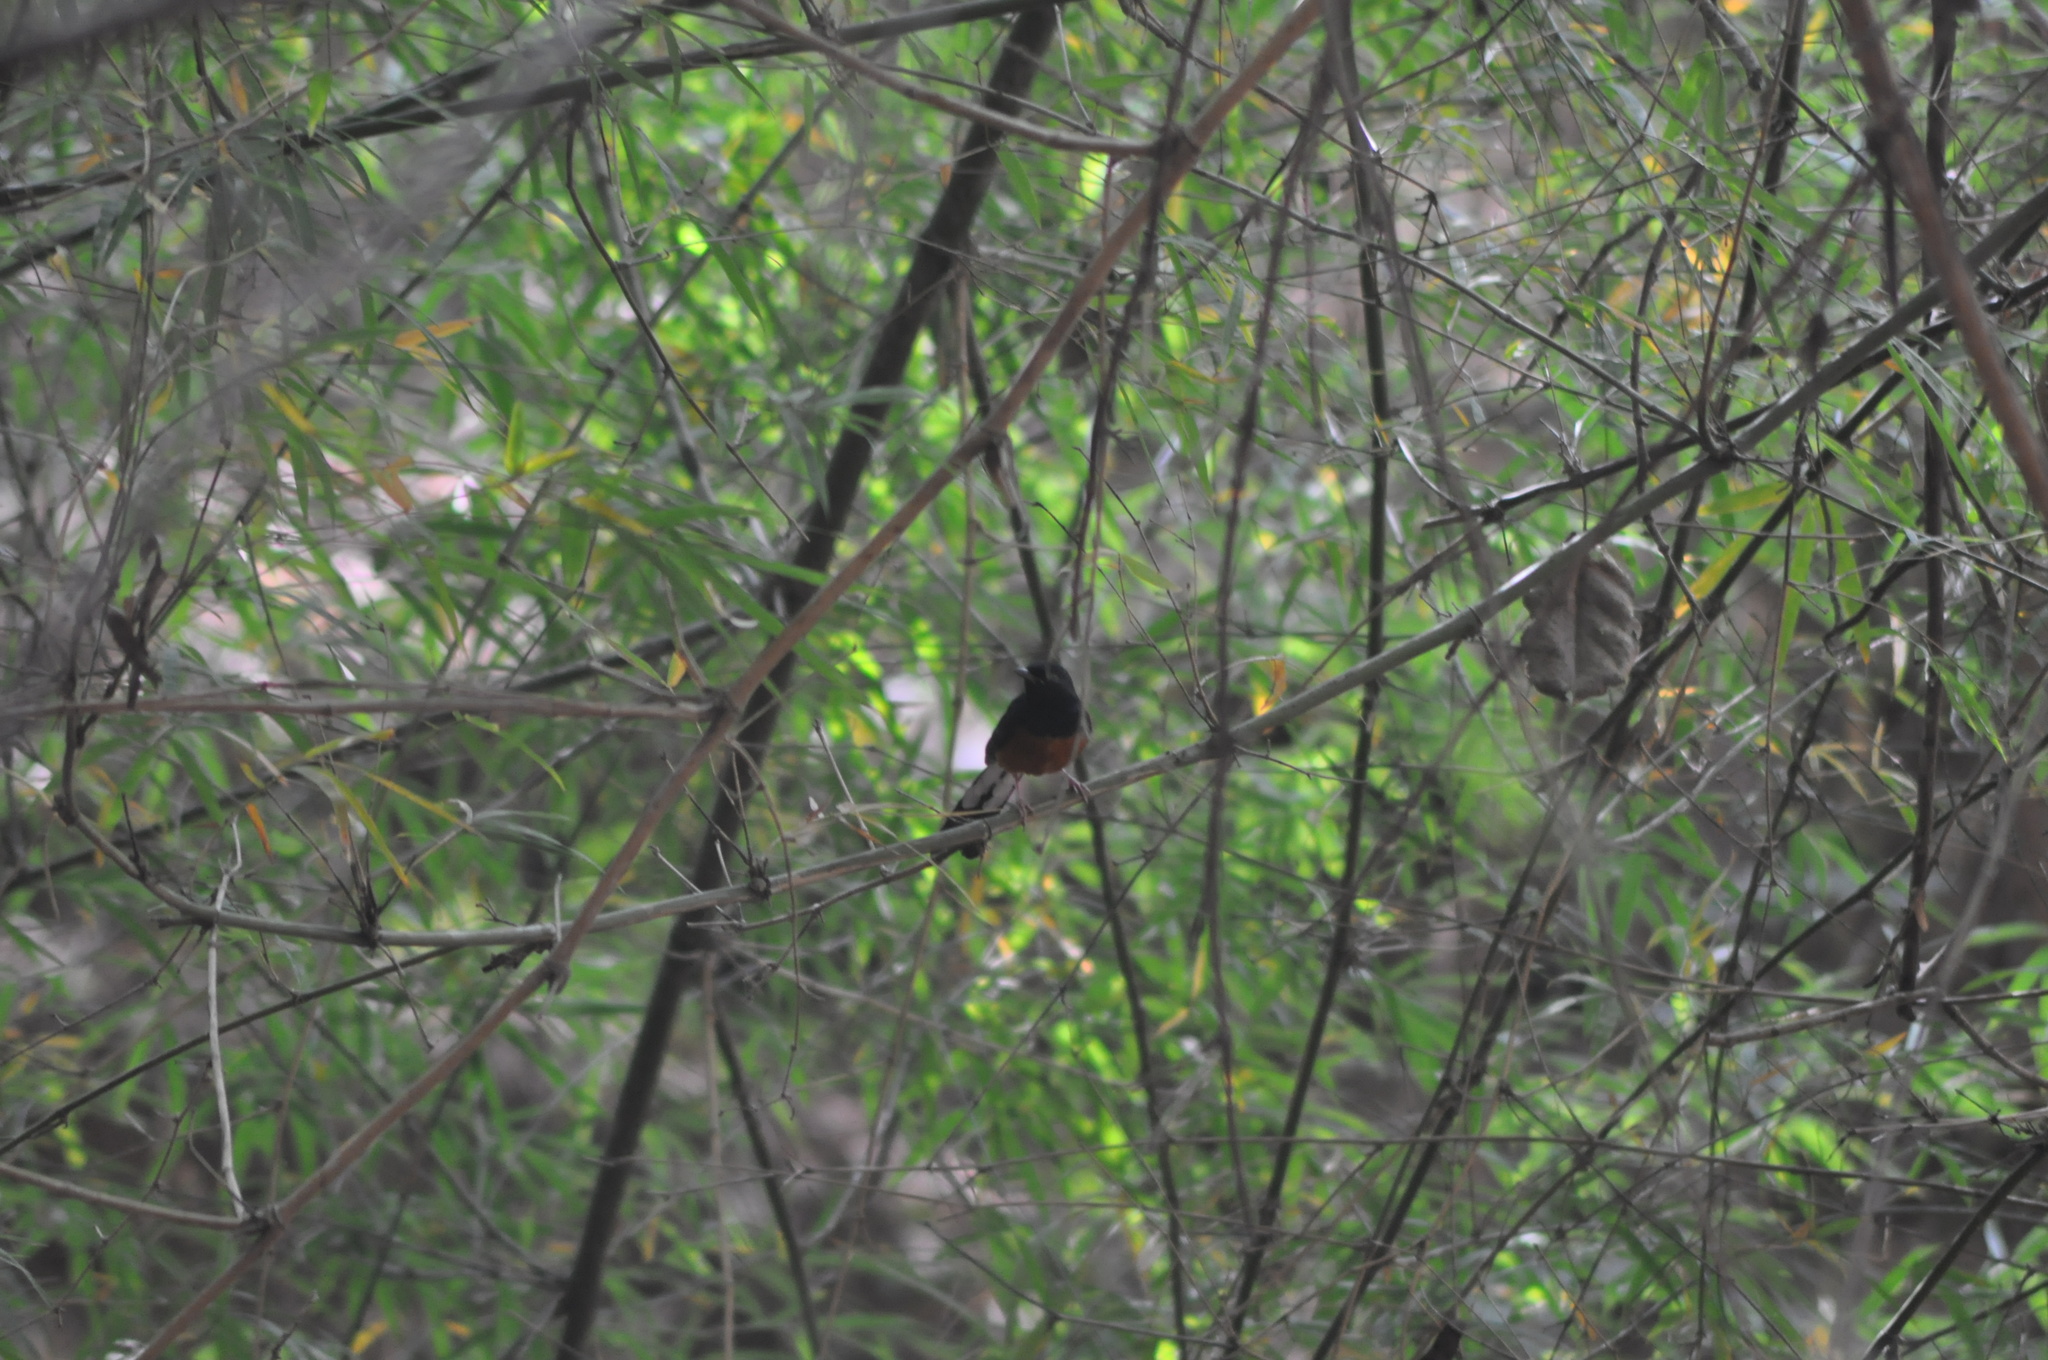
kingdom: Animalia
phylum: Chordata
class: Aves
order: Passeriformes
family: Muscicapidae
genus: Copsychus
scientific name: Copsychus malabaricus
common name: White-rumped shama
